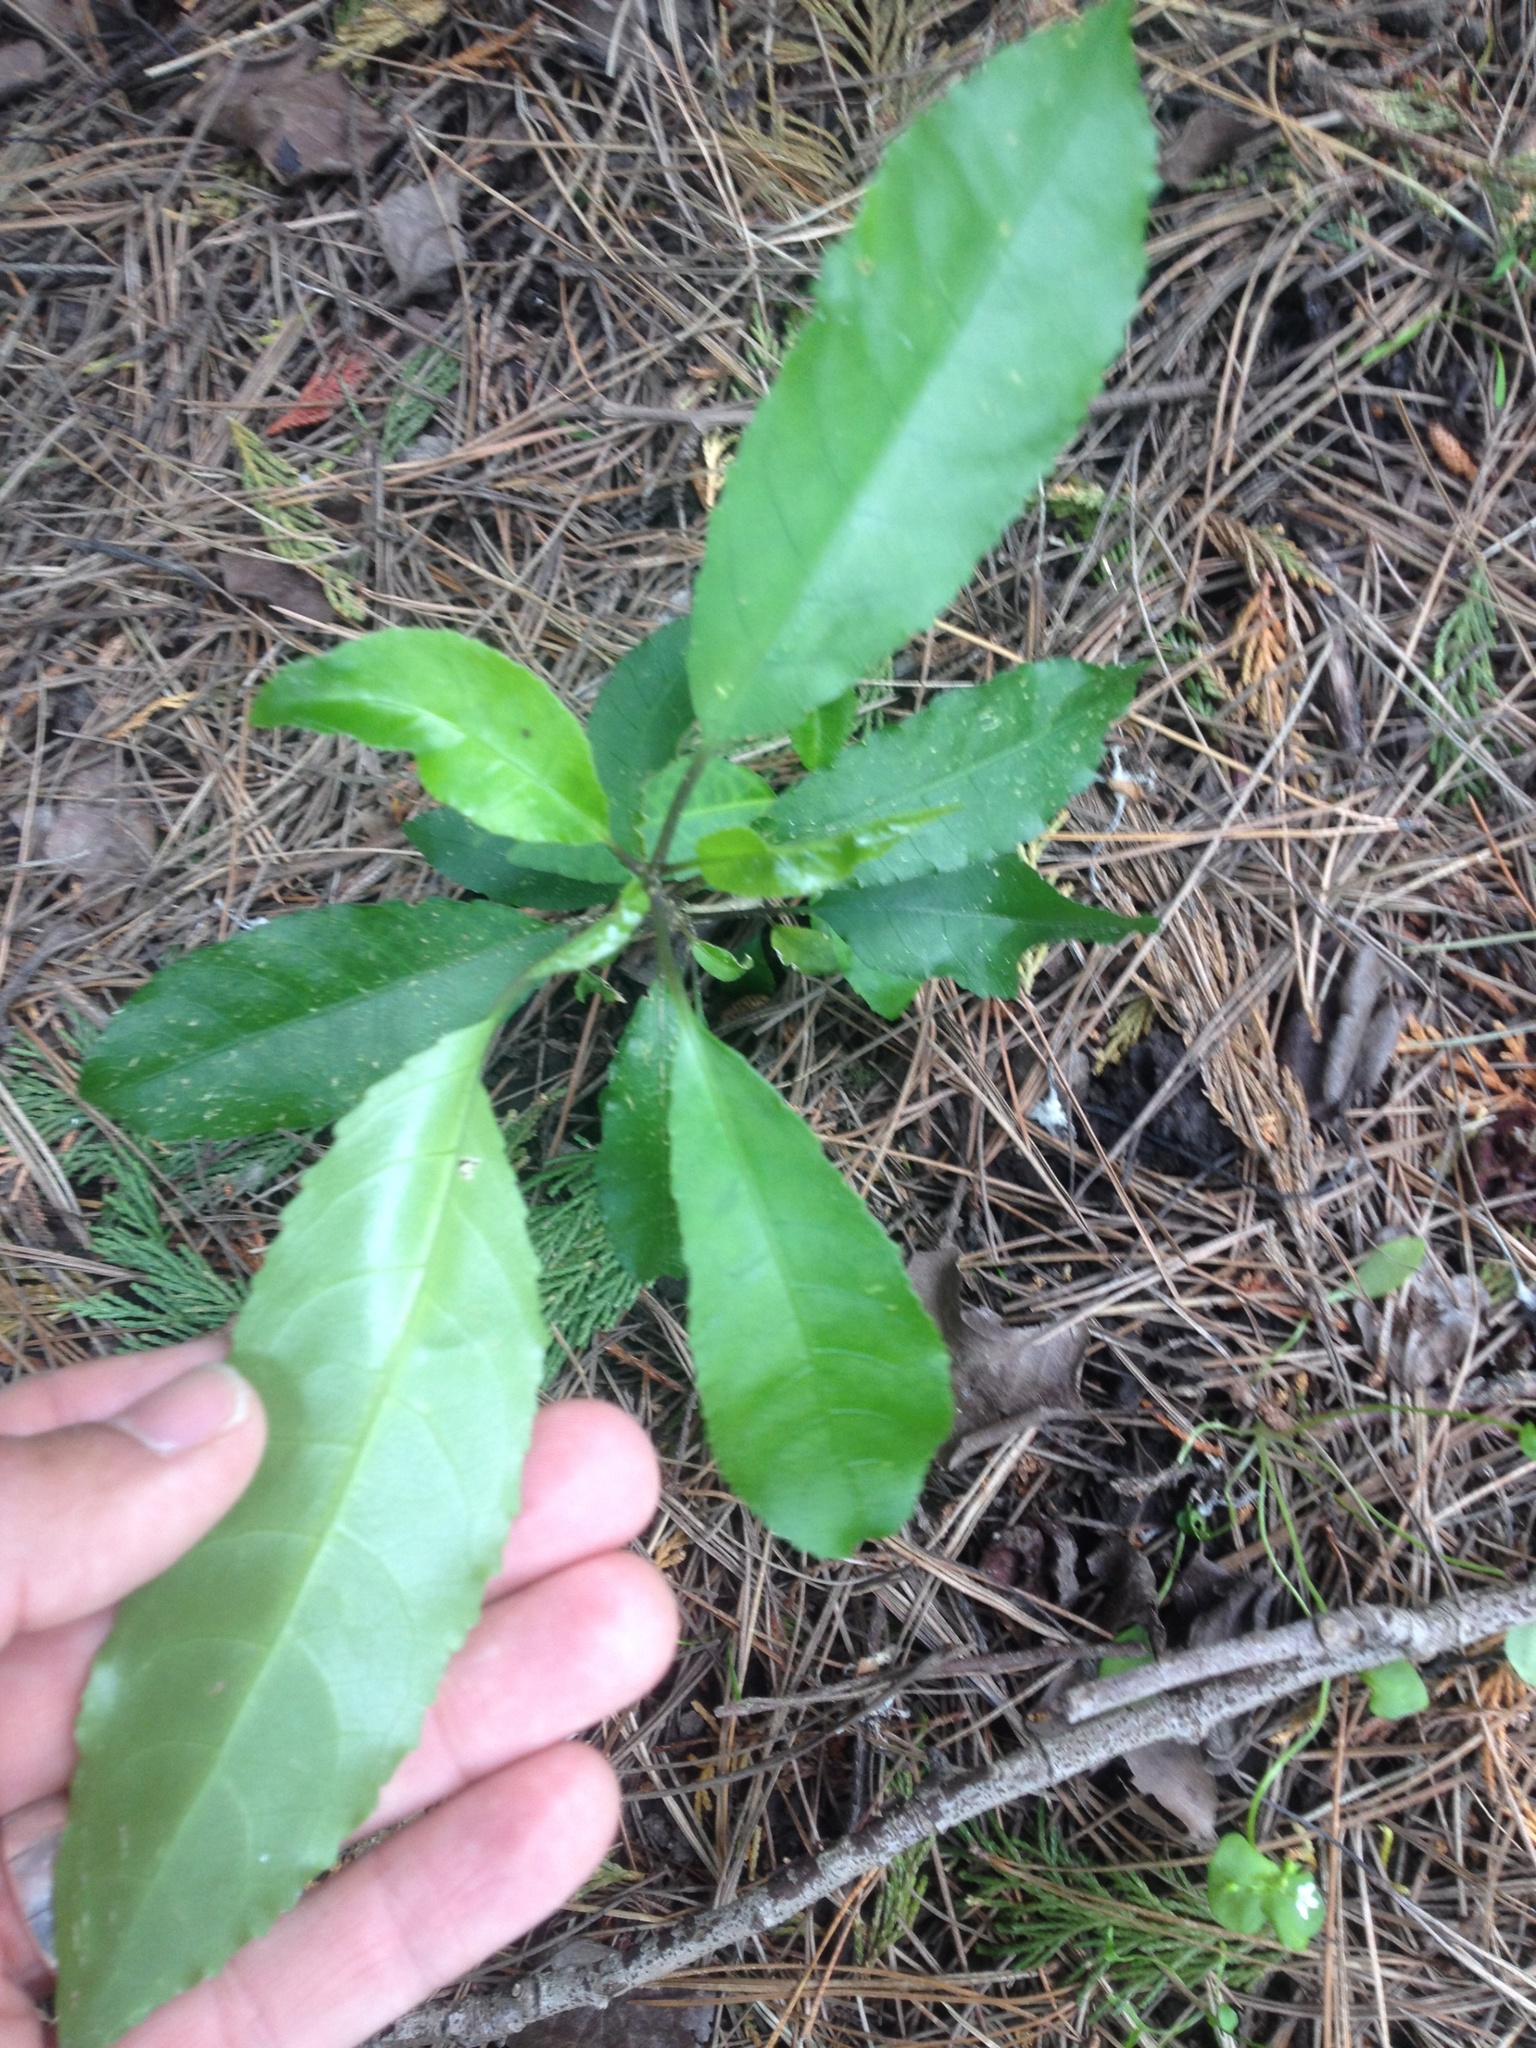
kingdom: Plantae
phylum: Tracheophyta
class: Magnoliopsida
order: Malpighiales
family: Violaceae
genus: Melicytus
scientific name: Melicytus ramiflorus
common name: Mahoe
